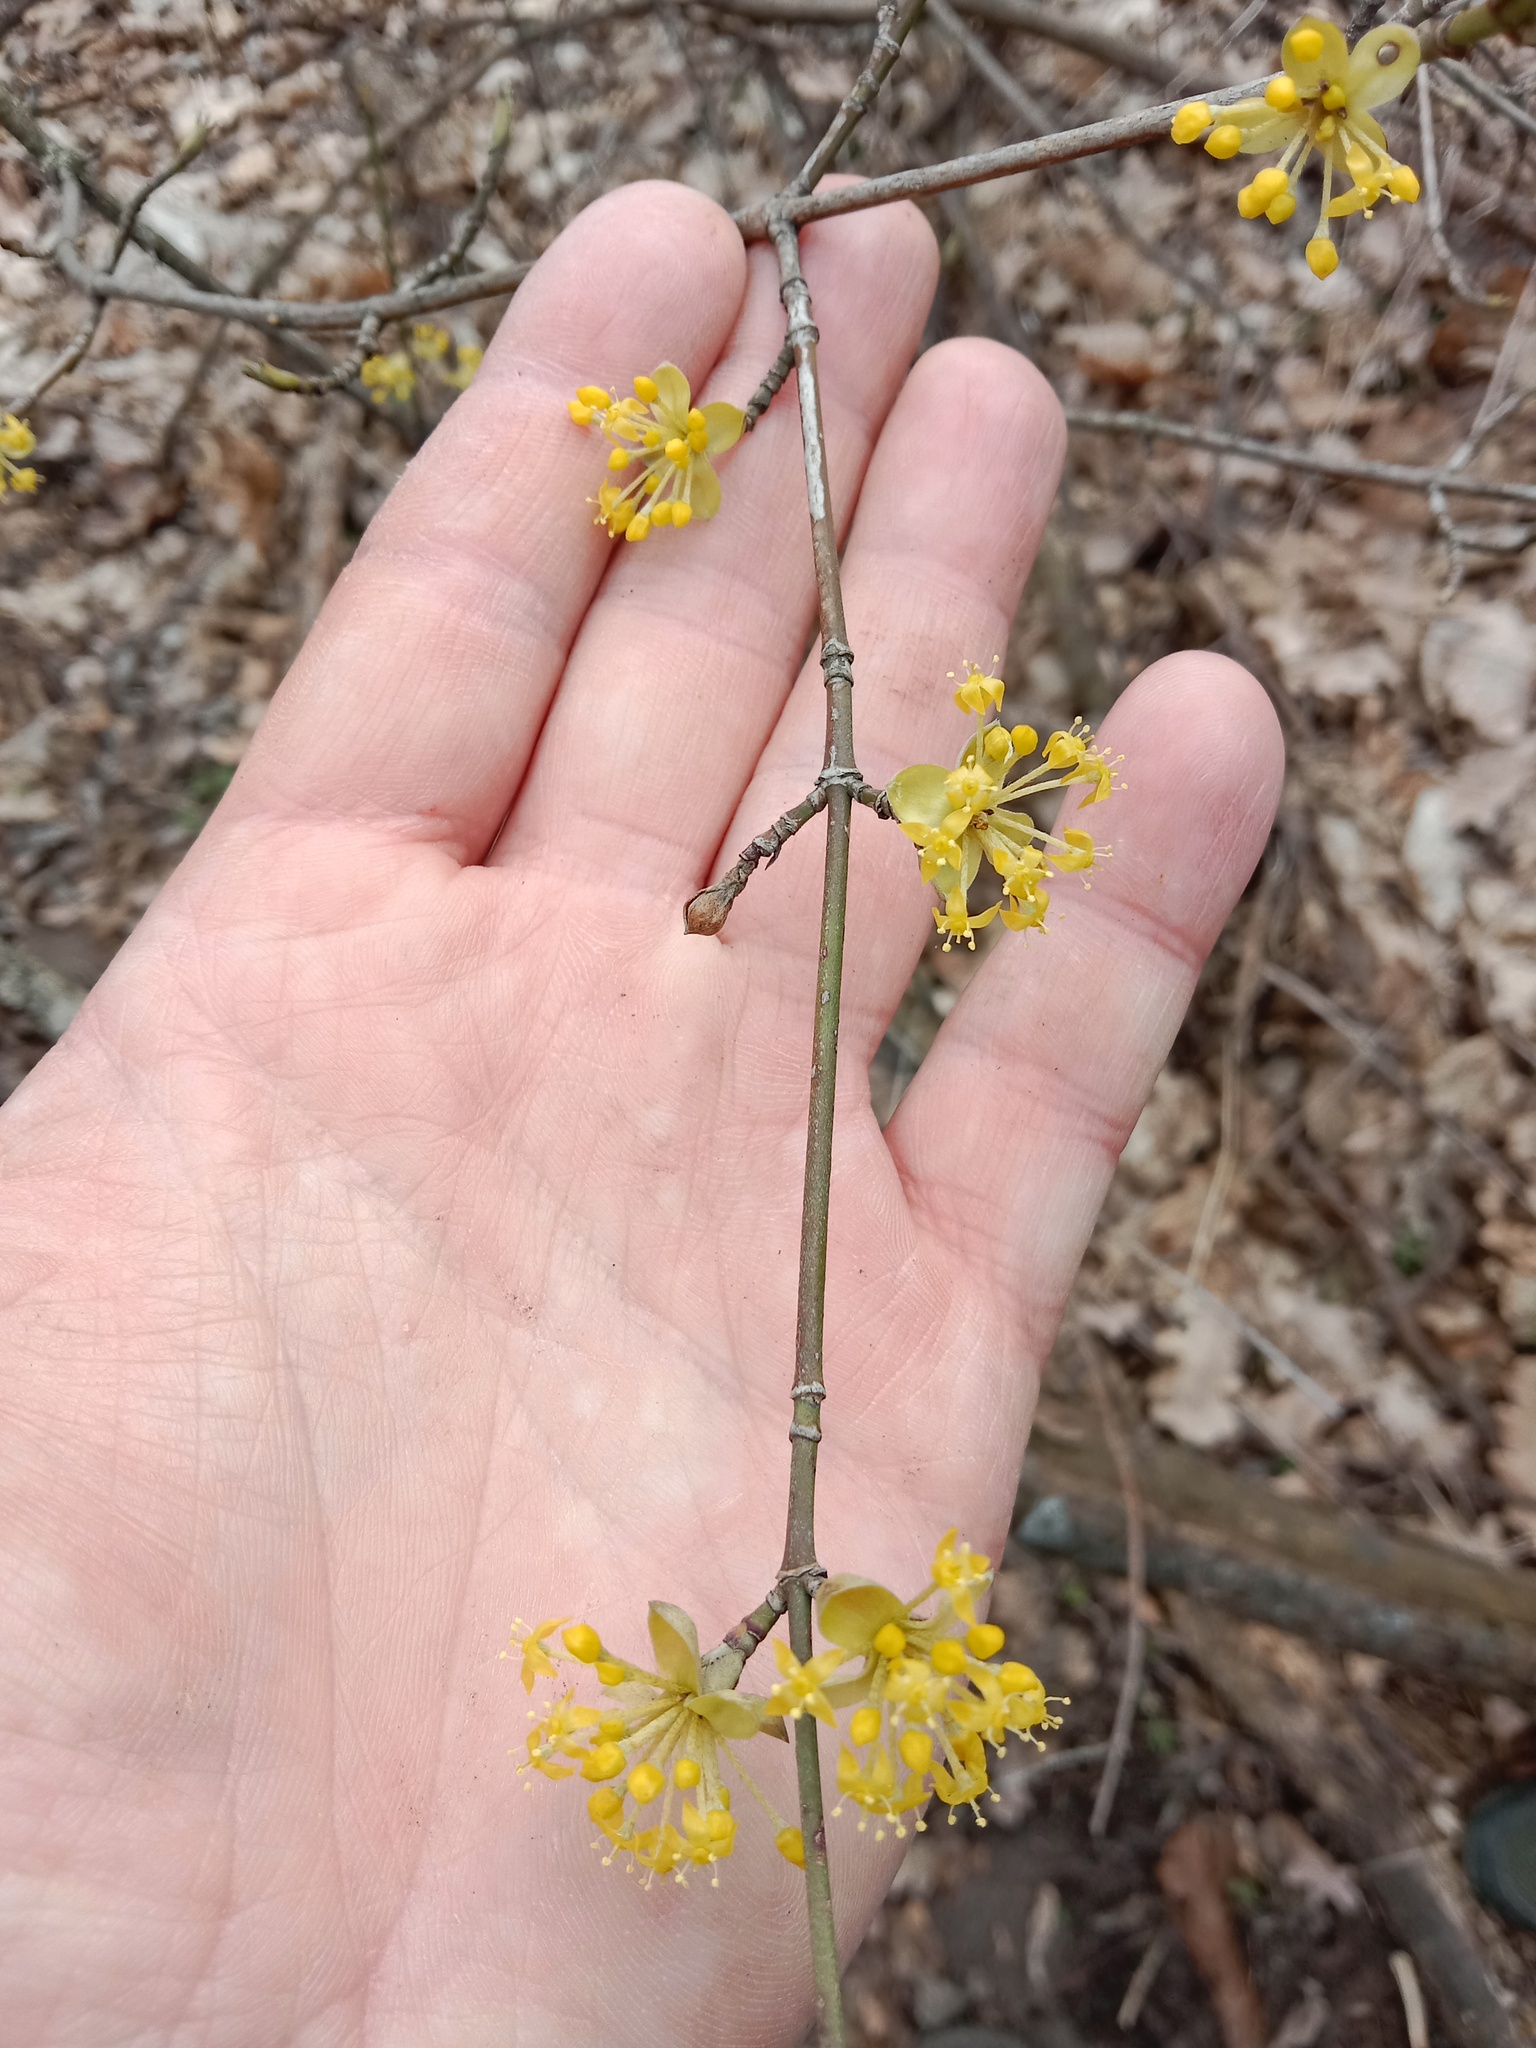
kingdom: Plantae
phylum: Tracheophyta
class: Magnoliopsida
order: Cornales
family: Cornaceae
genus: Cornus
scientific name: Cornus mas
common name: Cornelian-cherry
